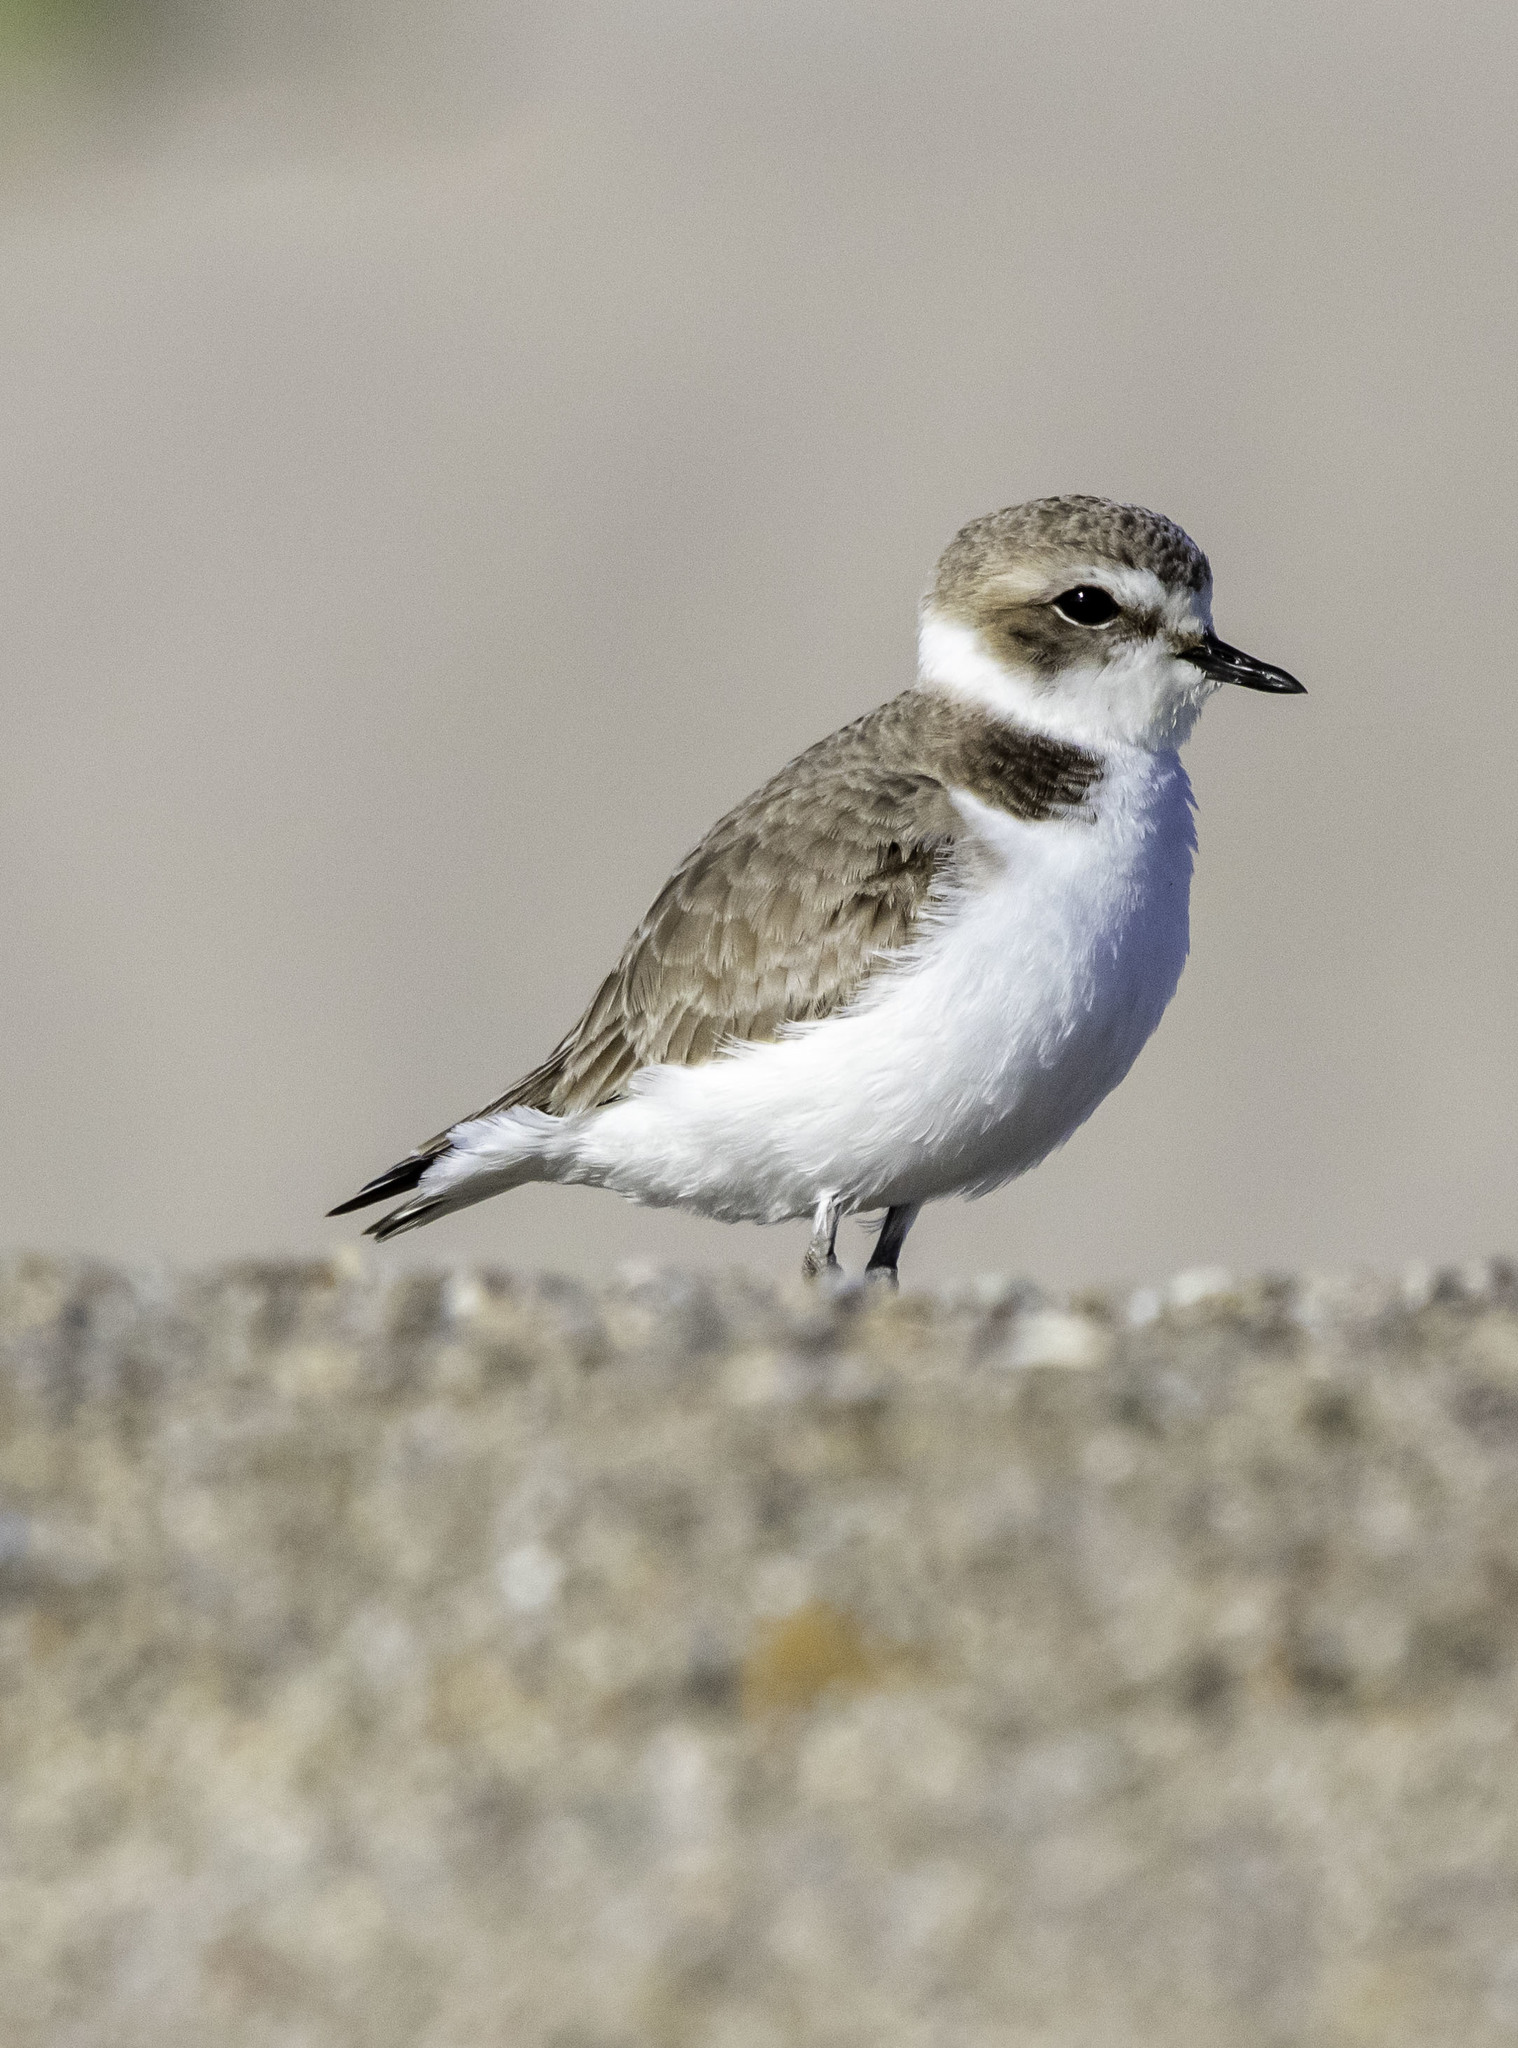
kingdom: Animalia
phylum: Chordata
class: Aves
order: Charadriiformes
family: Charadriidae
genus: Anarhynchus
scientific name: Anarhynchus
